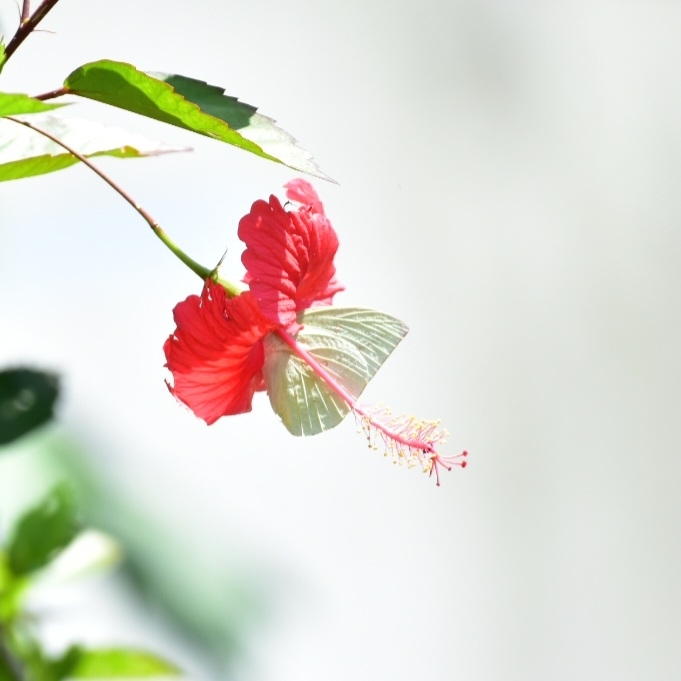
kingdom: Animalia
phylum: Arthropoda
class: Insecta
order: Lepidoptera
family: Pieridae
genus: Catopsilia
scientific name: Catopsilia pomona
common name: Common emigrant
